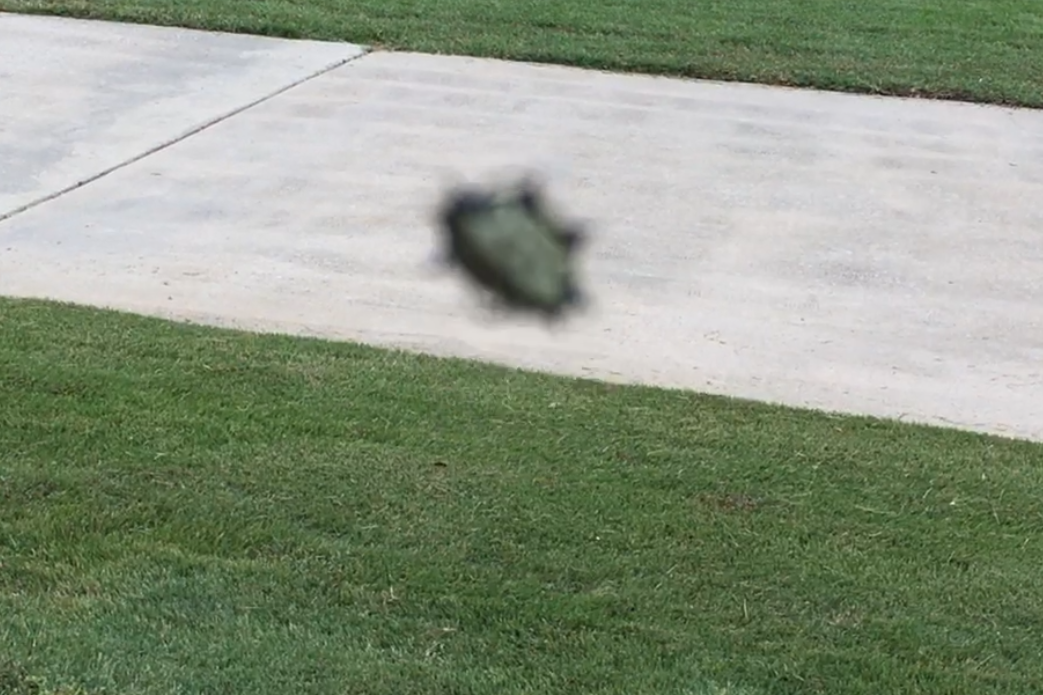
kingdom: Animalia
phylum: Arthropoda
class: Arachnida
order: Araneae
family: Araneidae
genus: Gasteracantha
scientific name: Gasteracantha cancriformis
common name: Orb weavers
